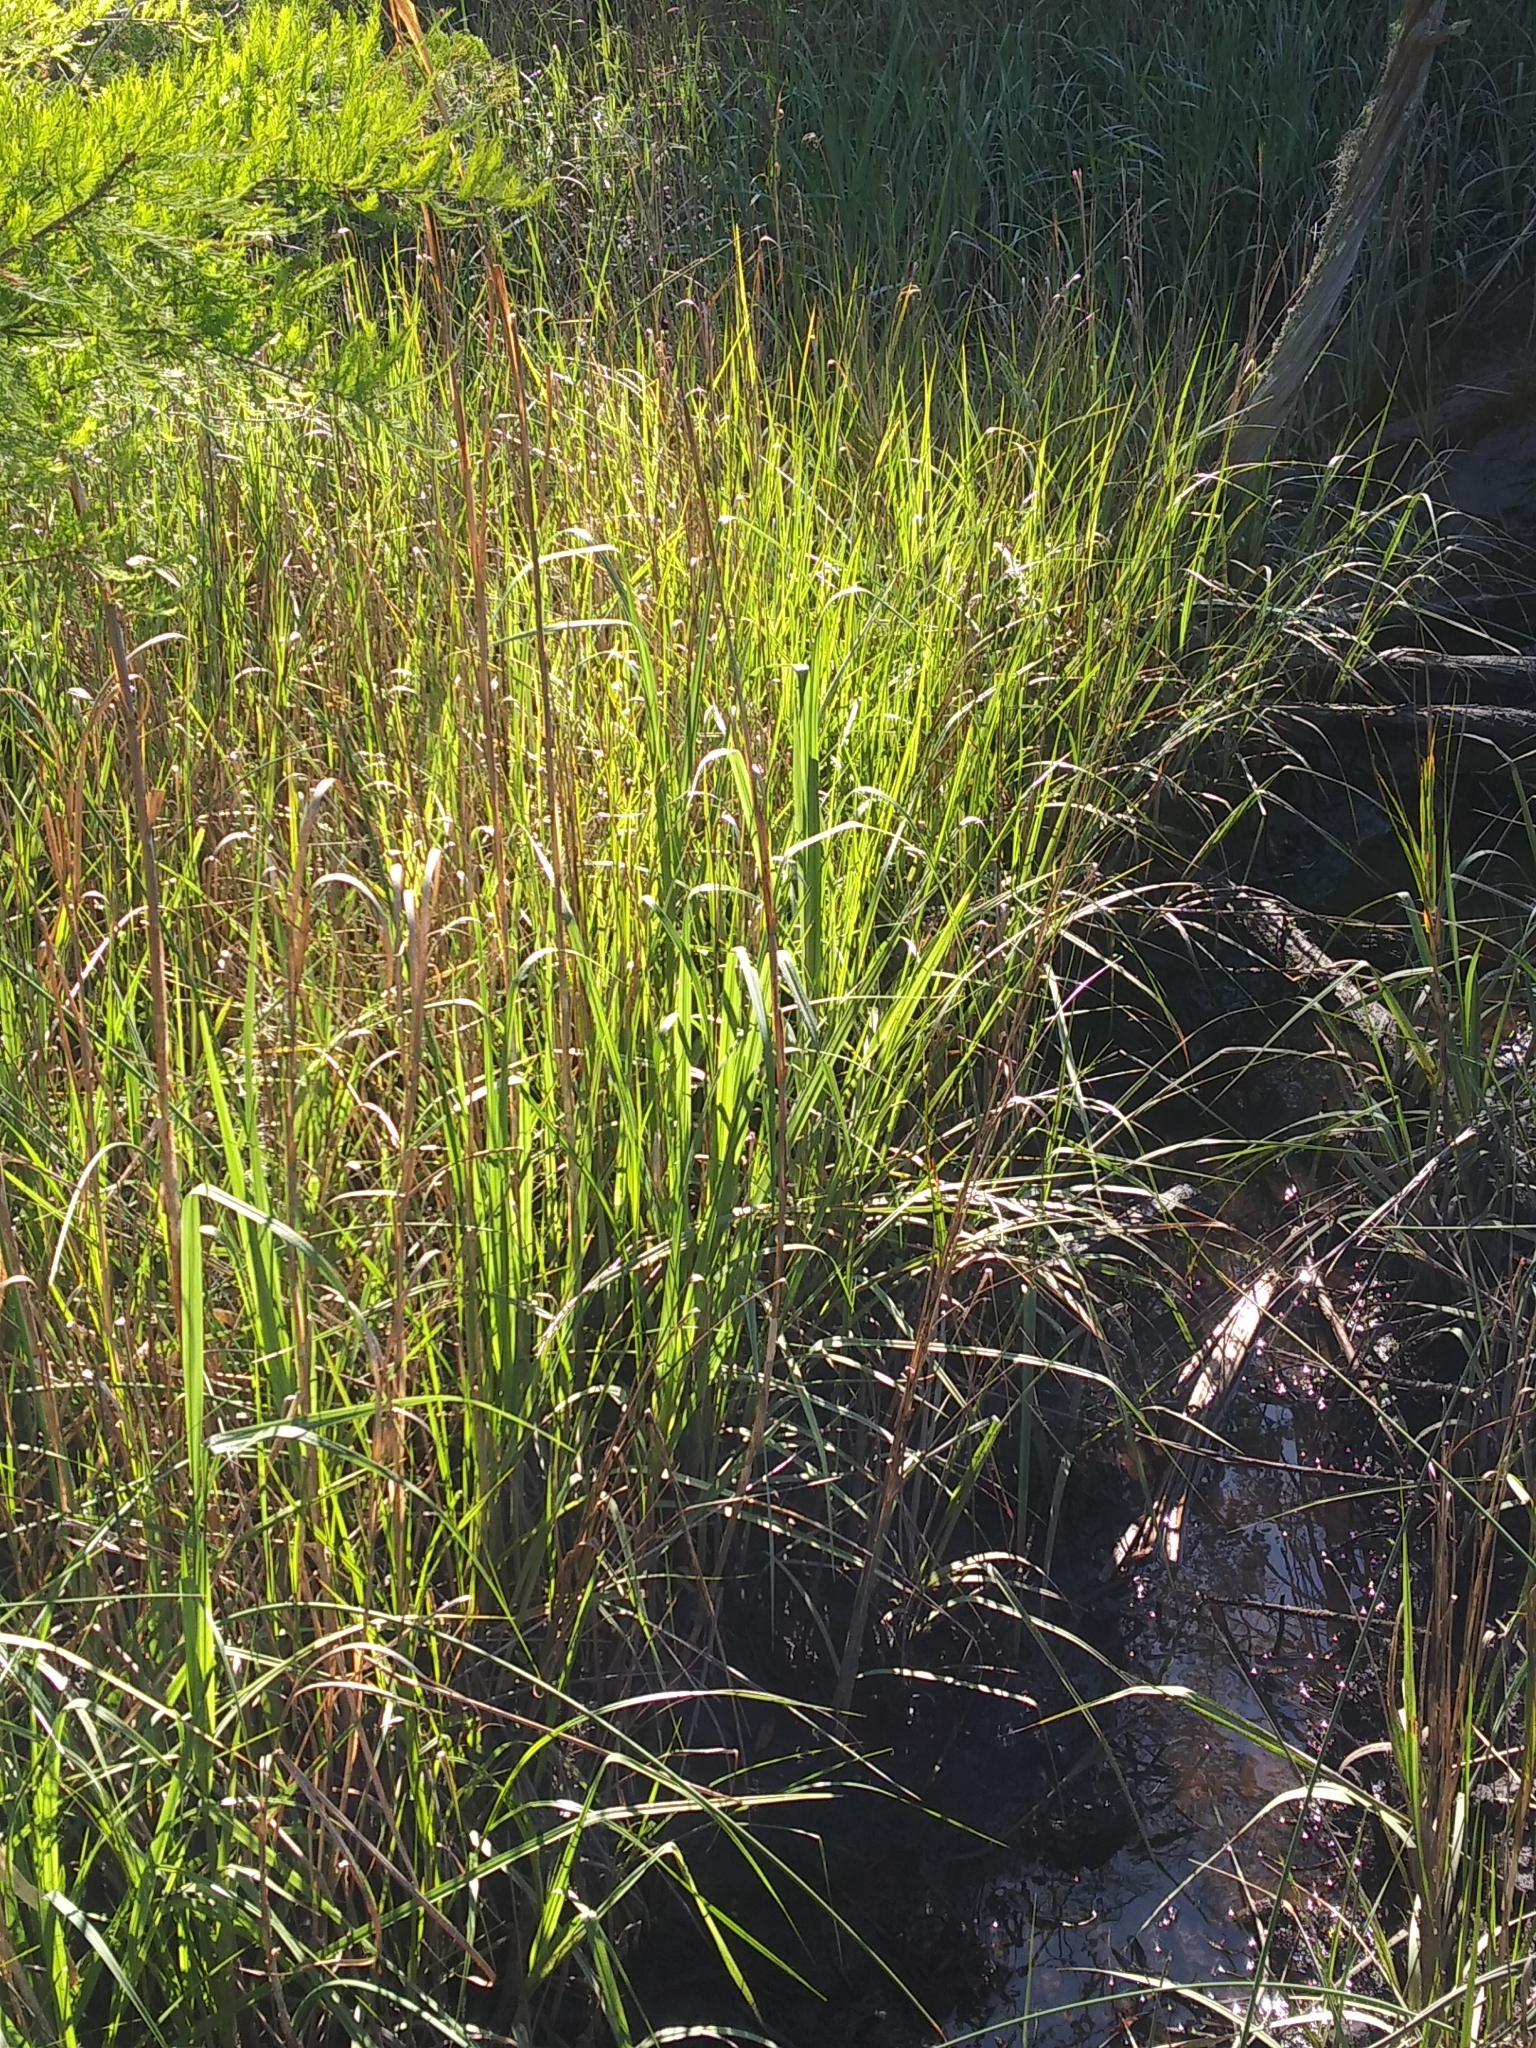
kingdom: Plantae
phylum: Tracheophyta
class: Liliopsida
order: Poales
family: Poaceae
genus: Sporobolus
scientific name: Sporobolus cynosuroides
